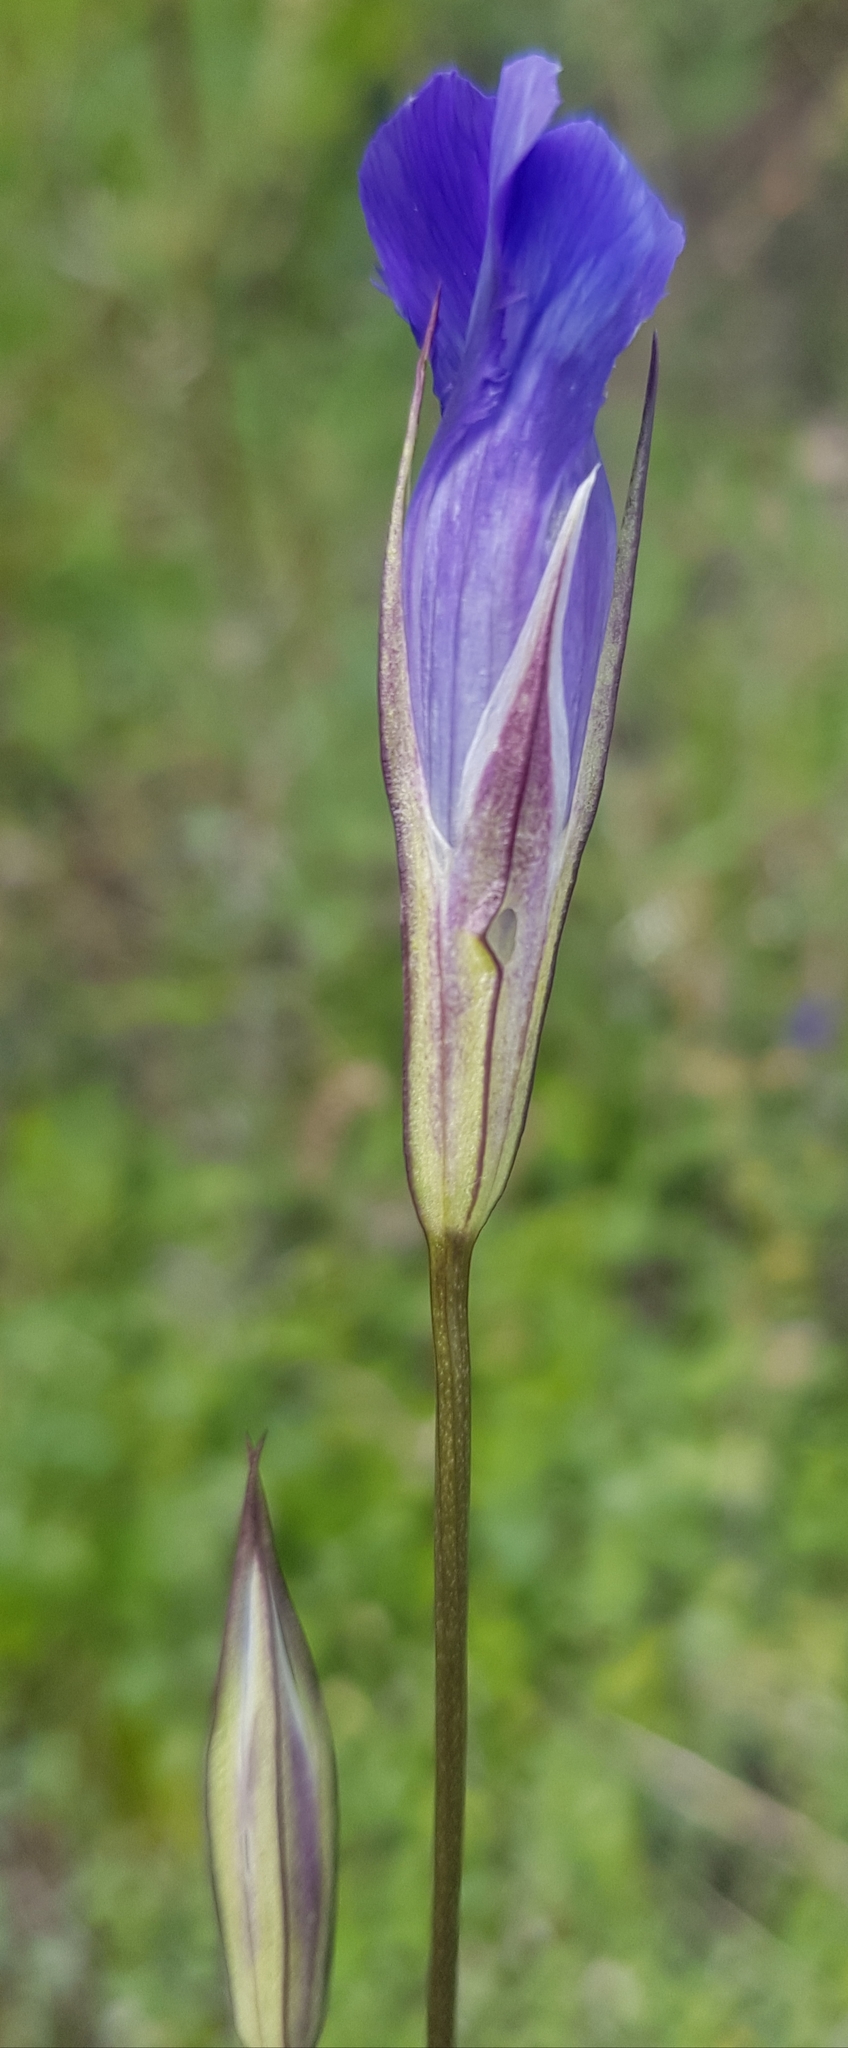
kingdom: Plantae
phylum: Tracheophyta
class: Magnoliopsida
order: Gentianales
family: Gentianaceae
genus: Gentianopsis
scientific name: Gentianopsis barbata
